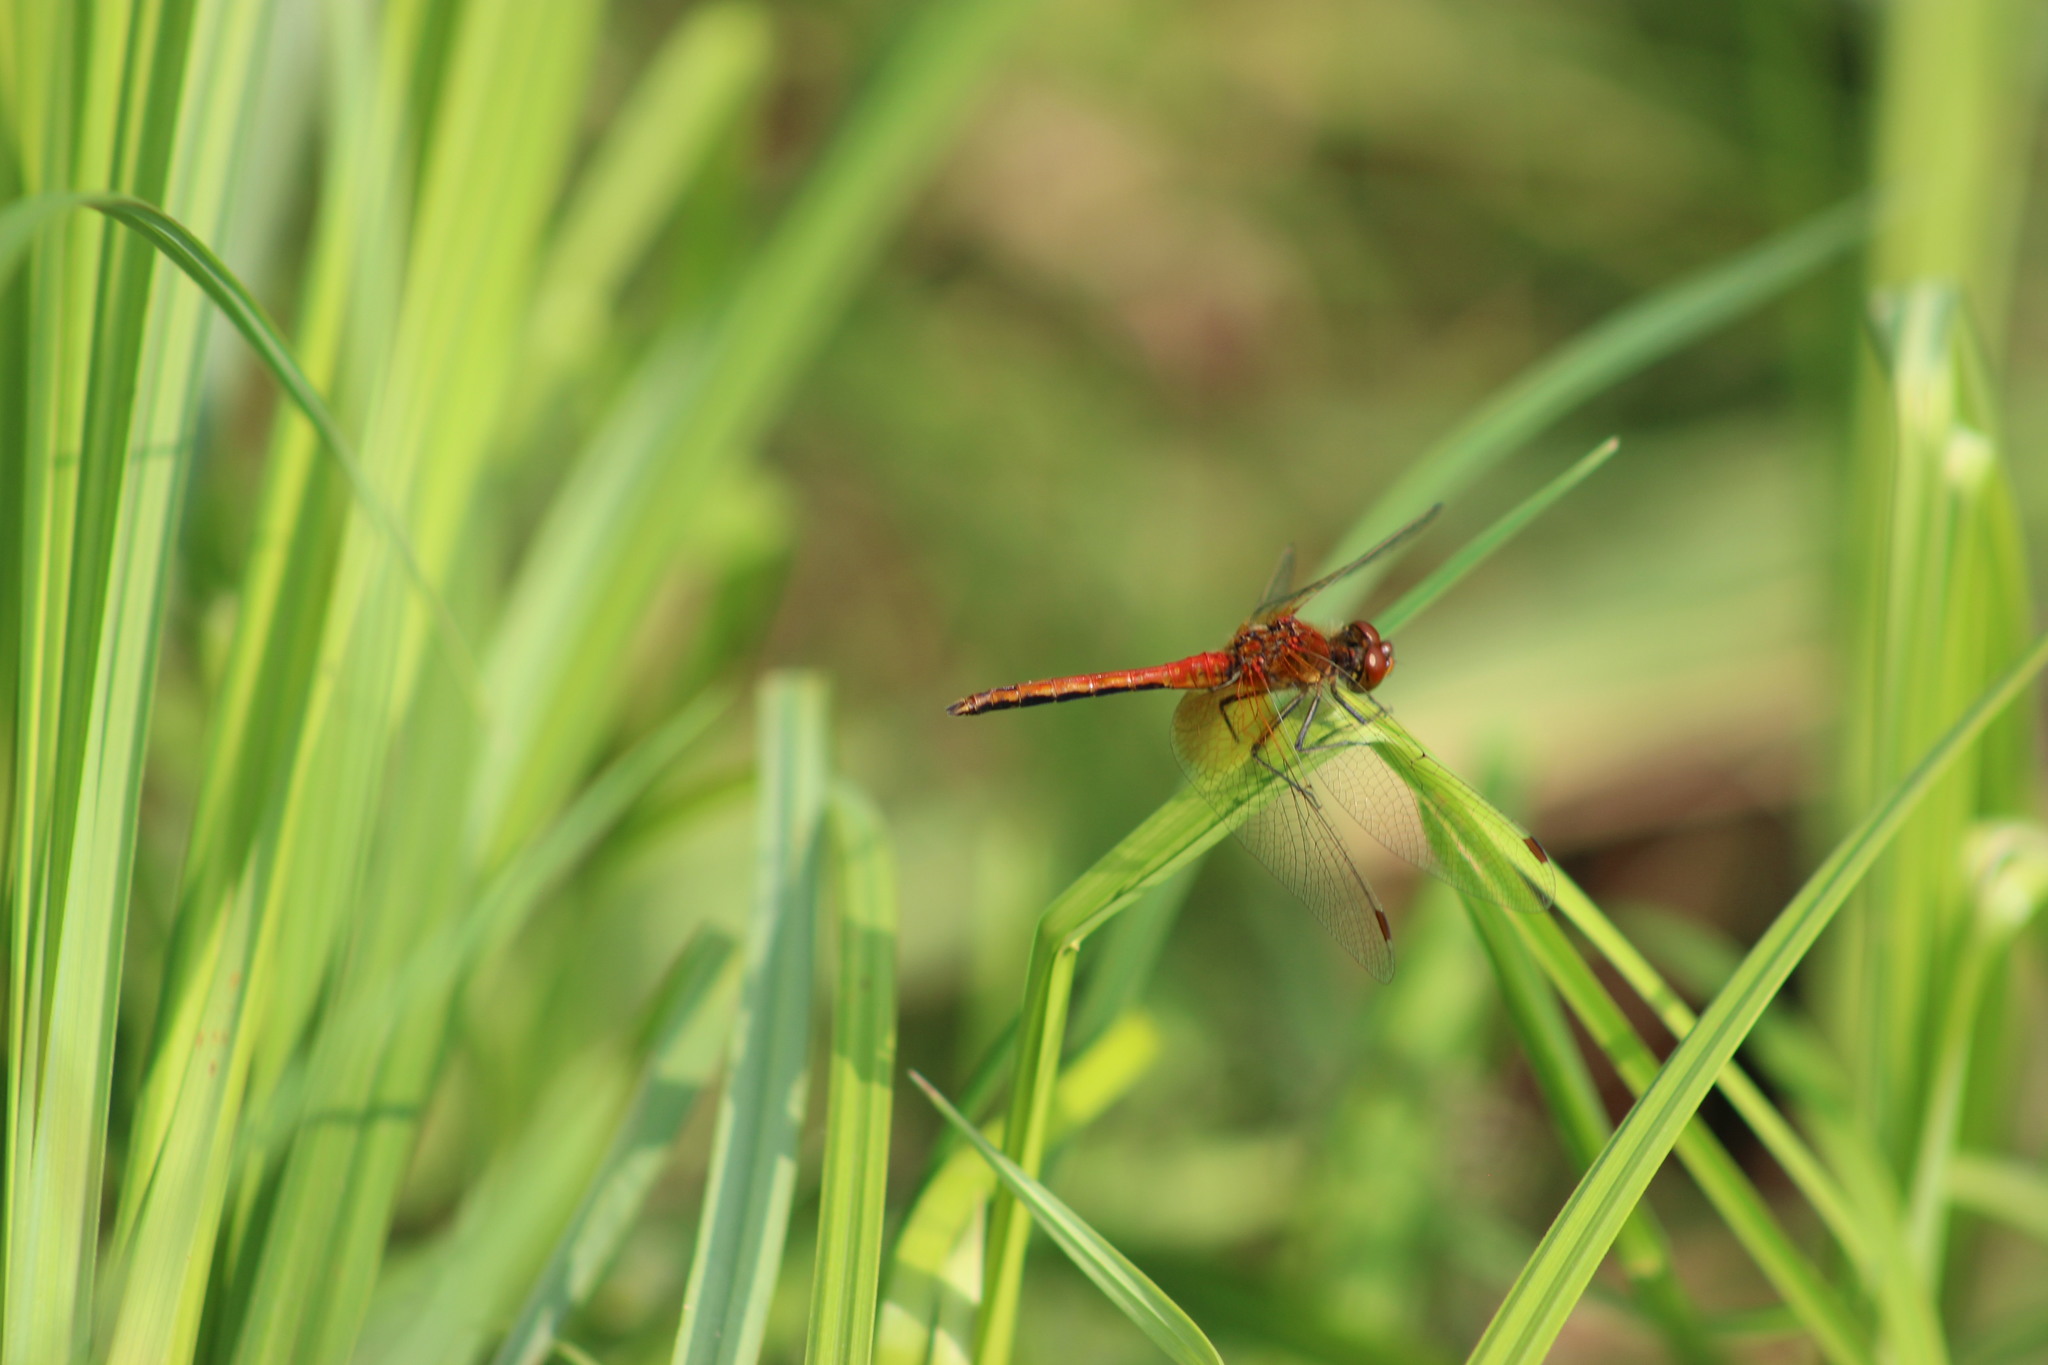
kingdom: Animalia
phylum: Arthropoda
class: Insecta
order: Odonata
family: Libellulidae
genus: Sympetrum
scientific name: Sympetrum flaveolum
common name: Yellow-winged darter
